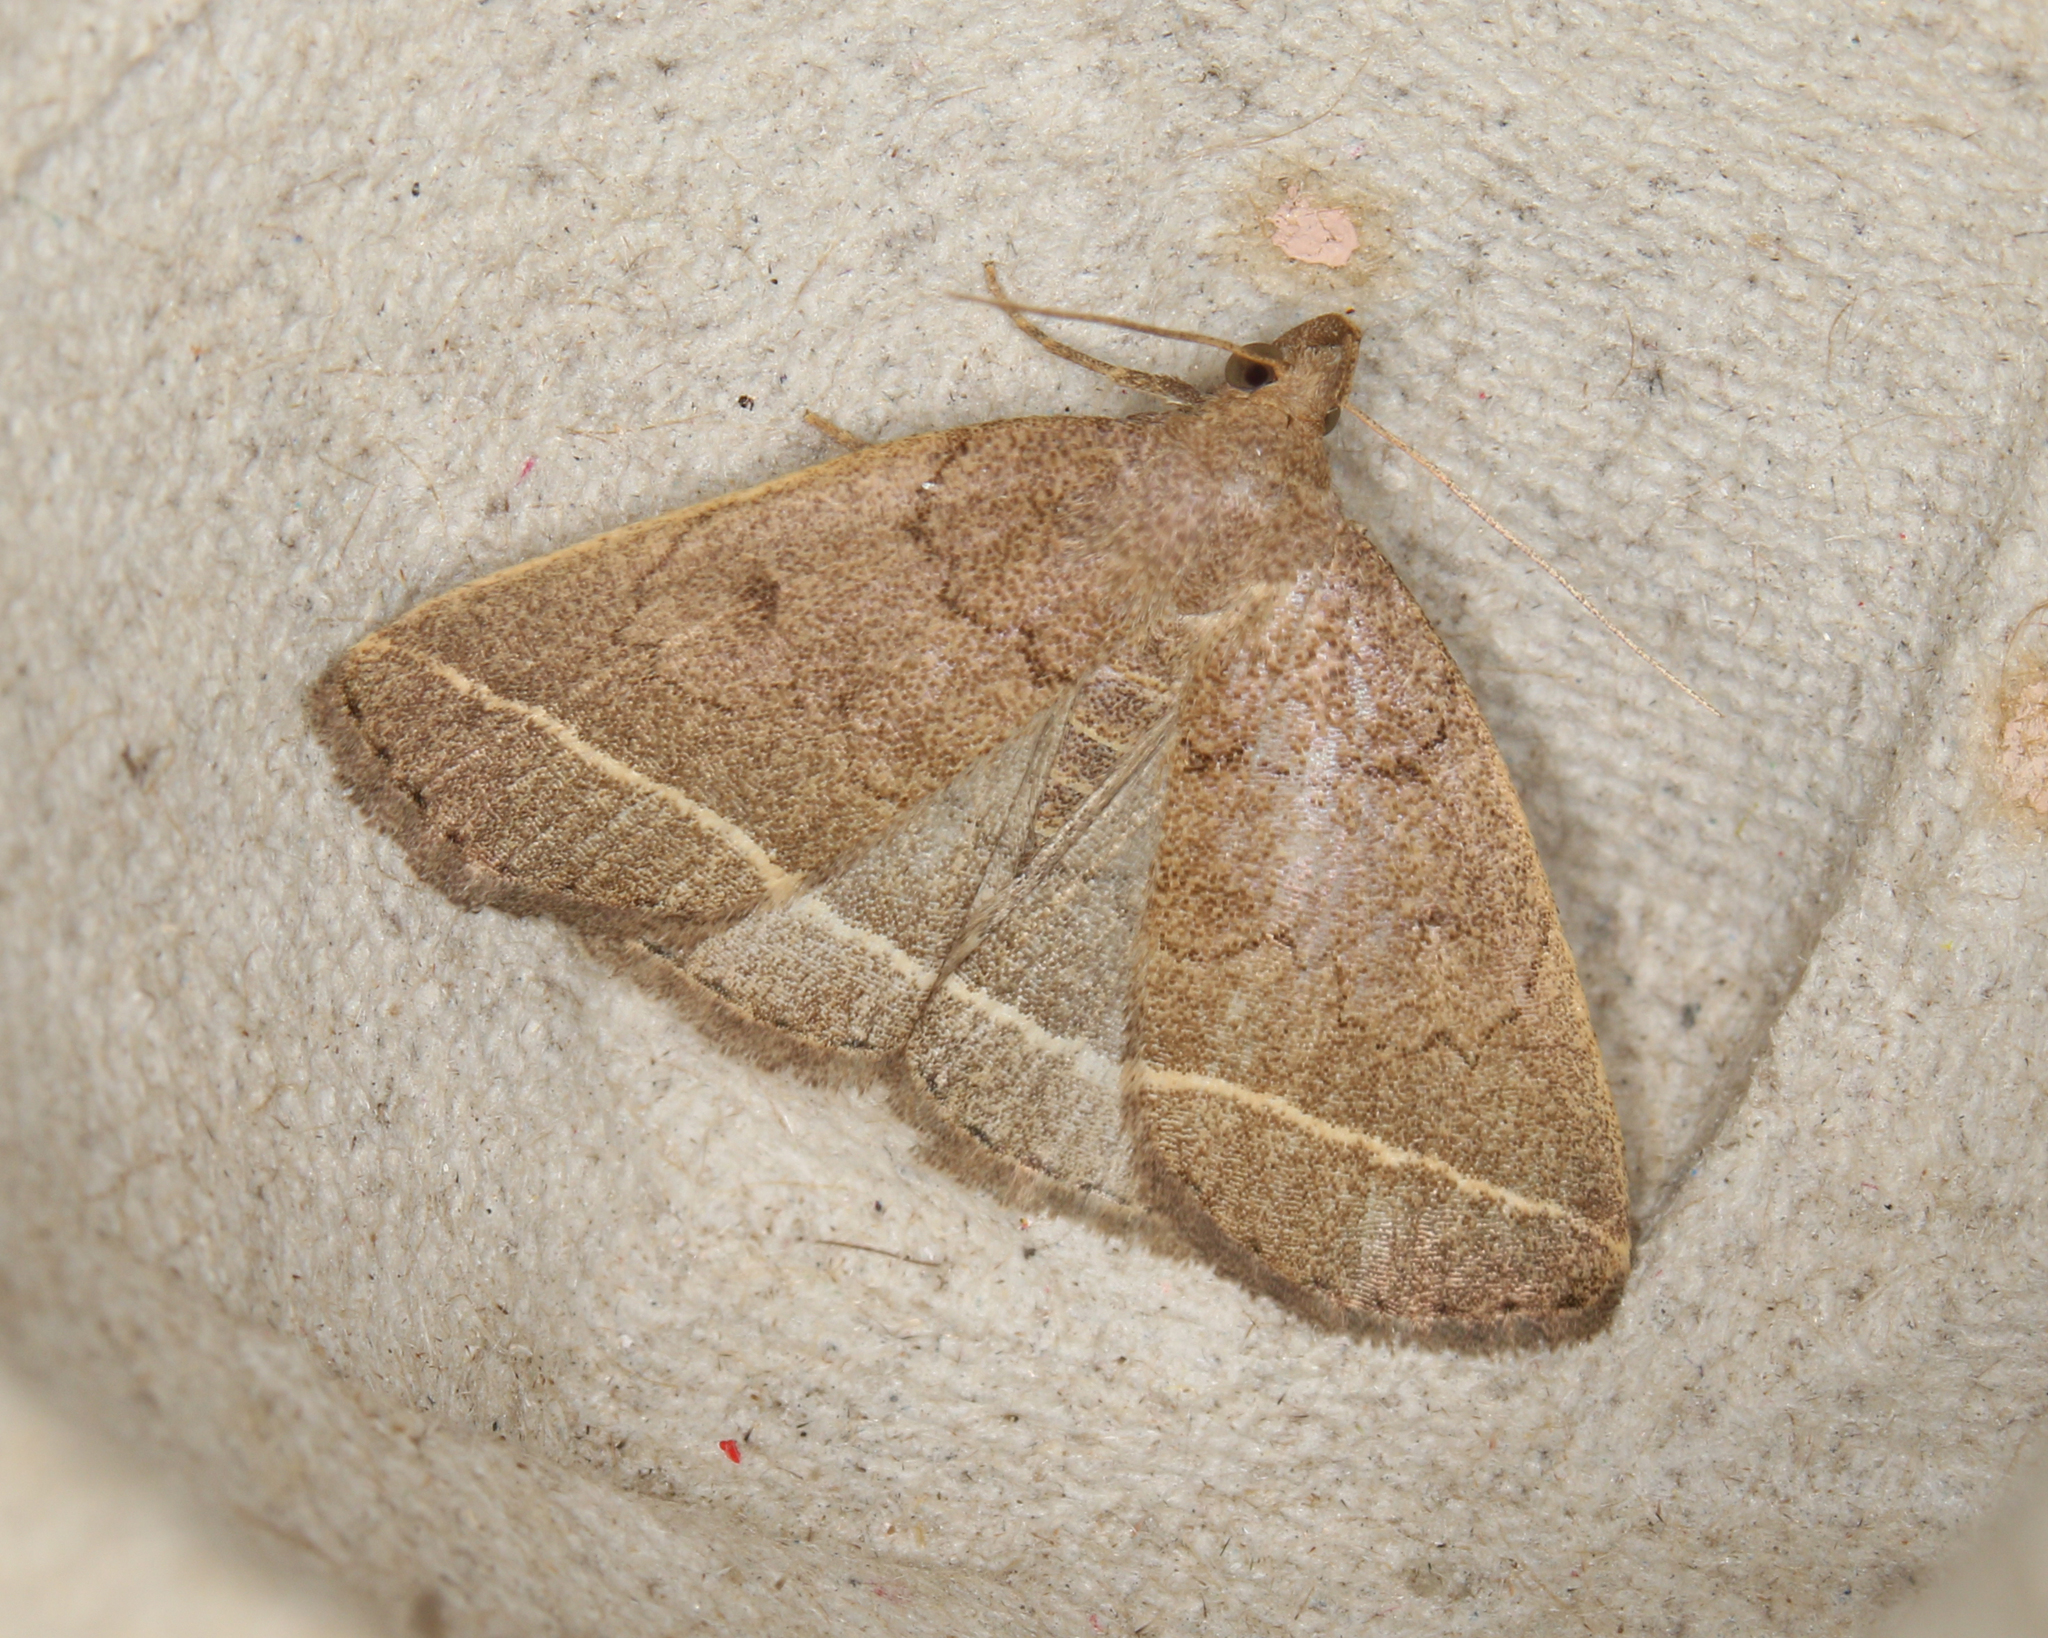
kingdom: Animalia
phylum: Arthropoda
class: Insecta
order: Lepidoptera
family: Erebidae
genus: Zanclognatha
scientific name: Zanclognatha marcidilinea
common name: Yellowish fan-foot
